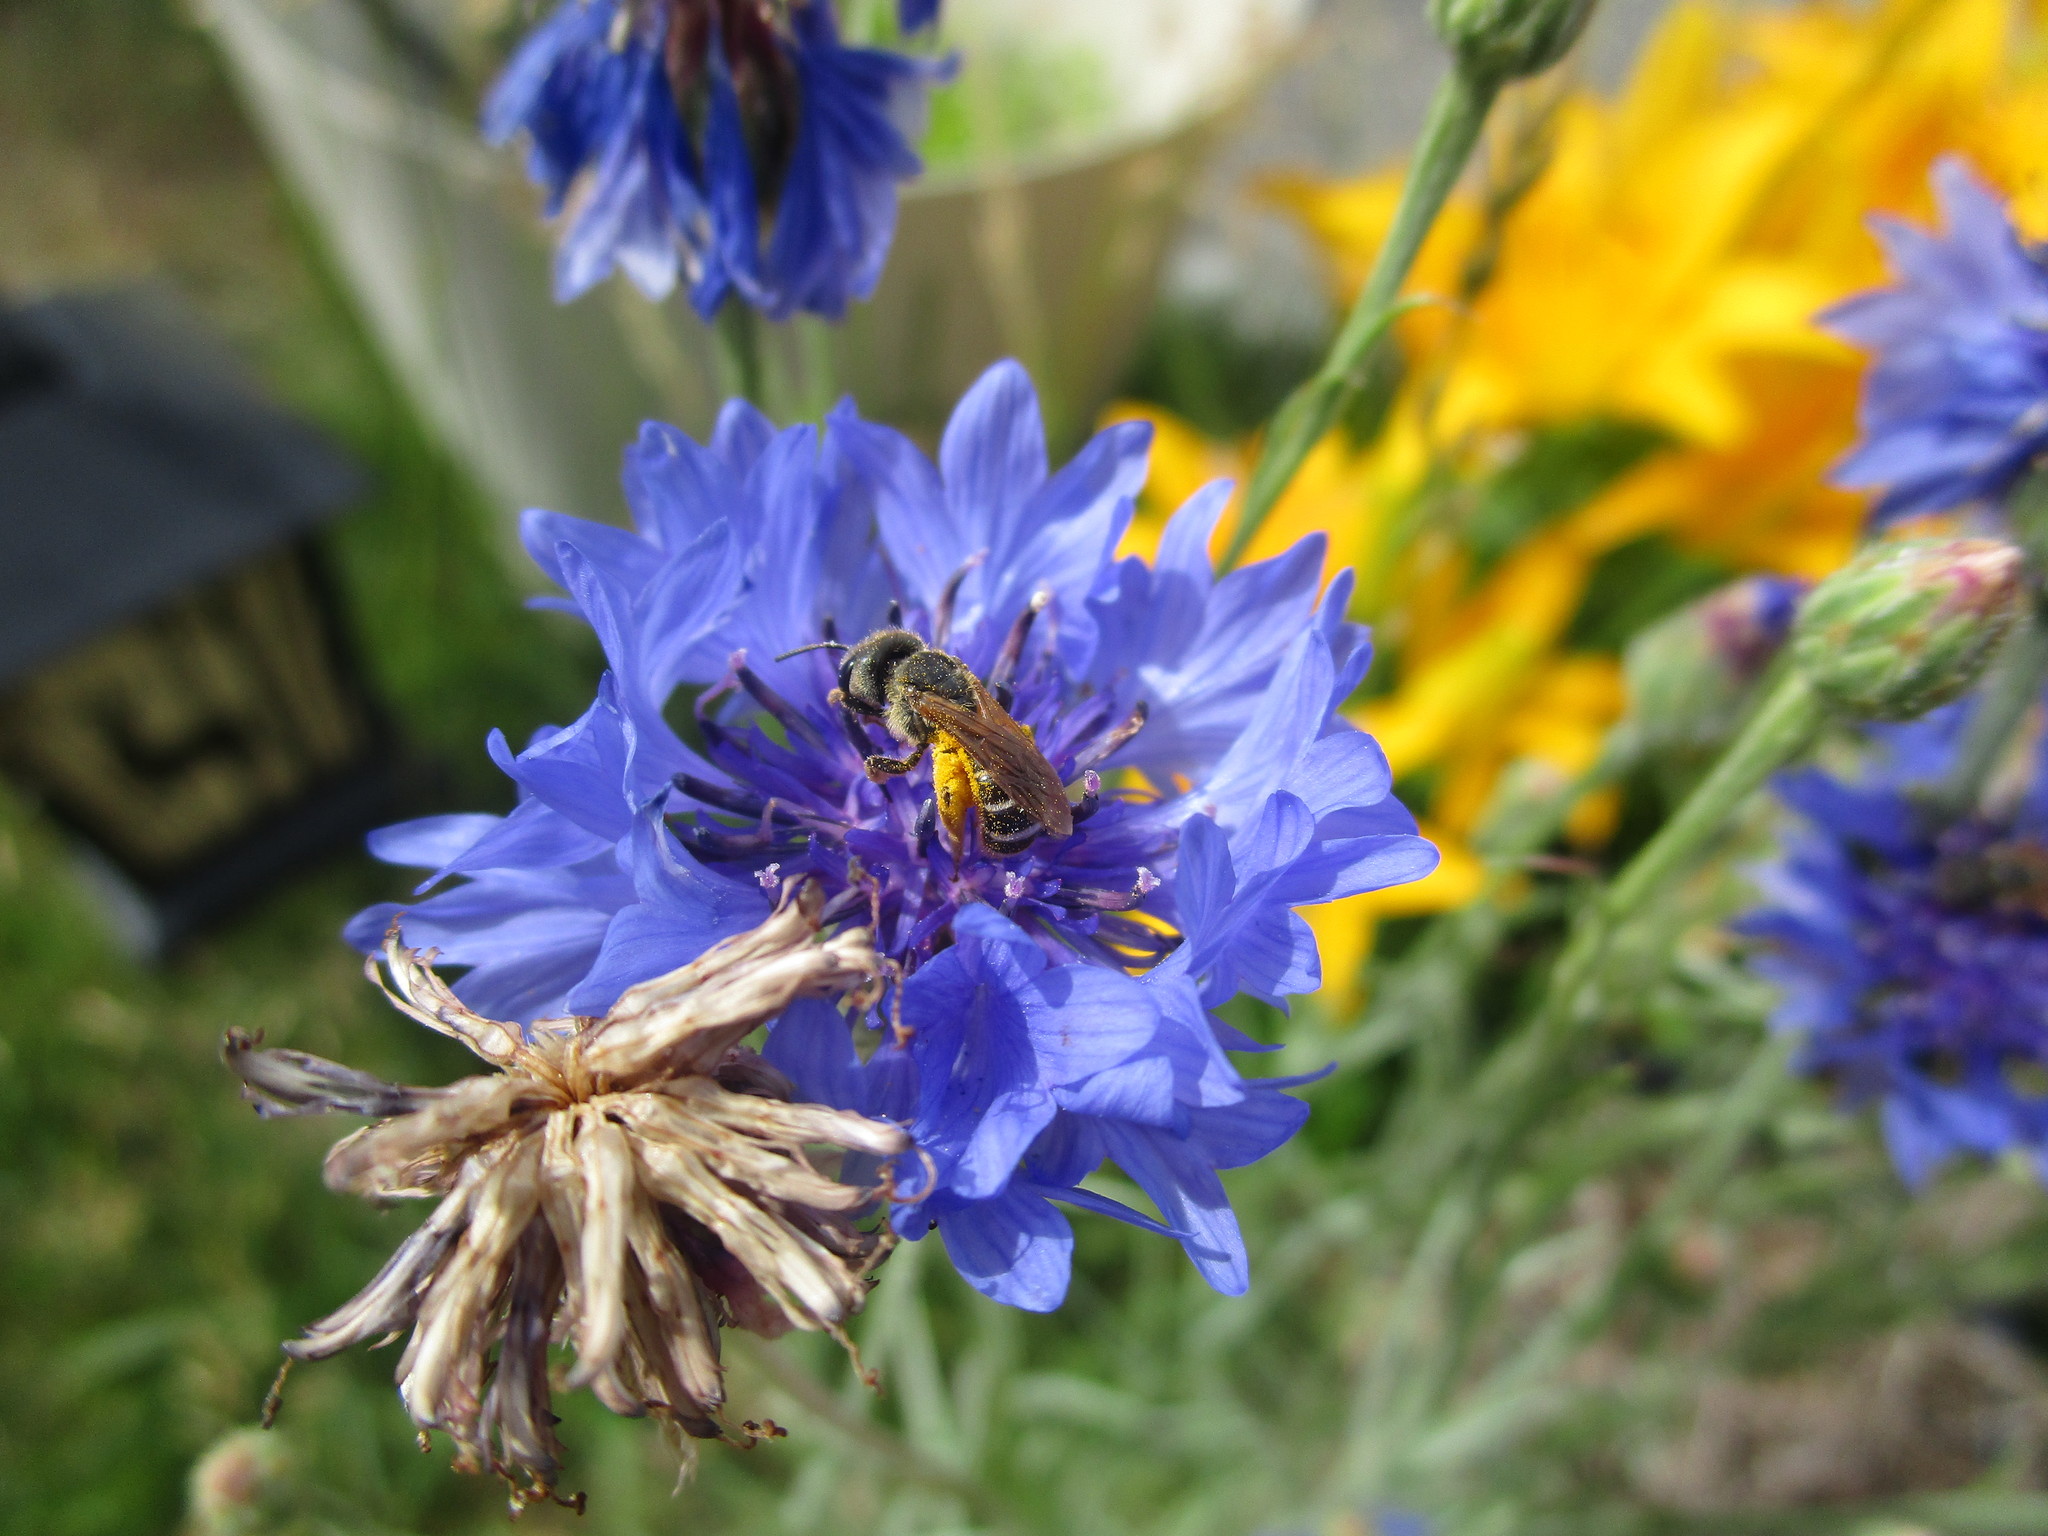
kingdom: Animalia
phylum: Arthropoda
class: Insecta
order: Hymenoptera
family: Halictidae
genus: Halictus
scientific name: Halictus ligatus
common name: Ligated furrow bee
